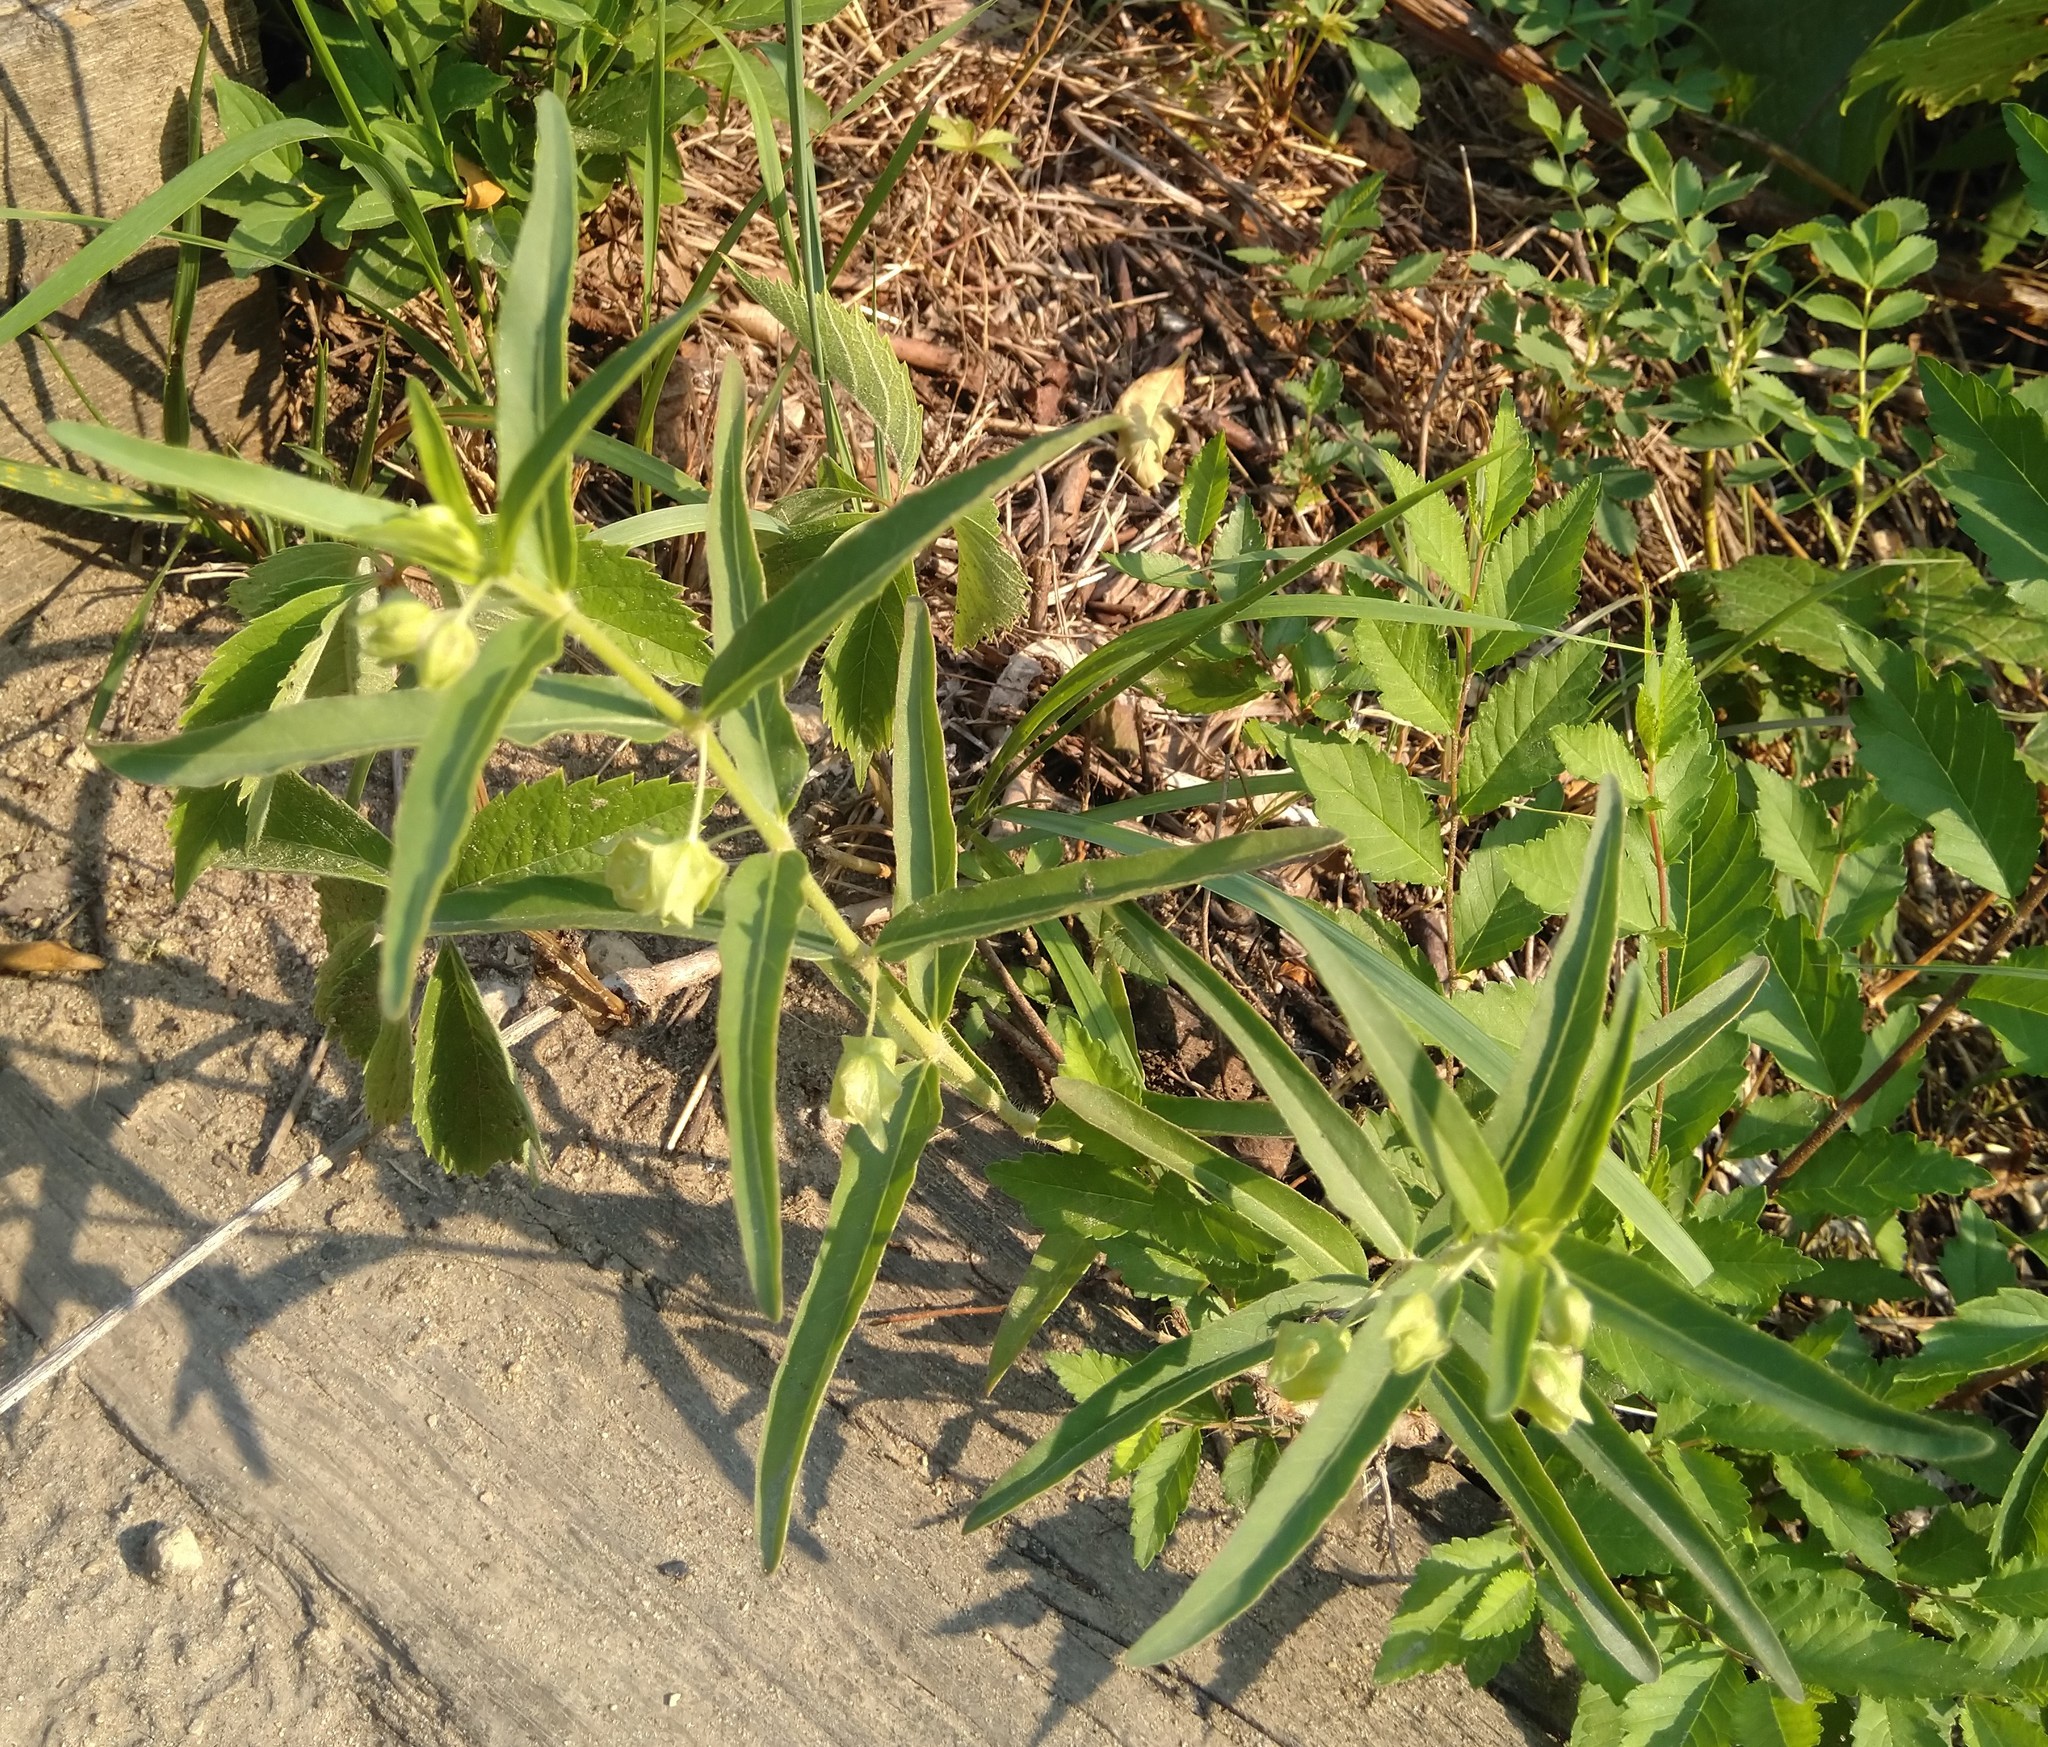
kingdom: Plantae
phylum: Tracheophyta
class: Magnoliopsida
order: Caryophyllales
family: Nyctaginaceae
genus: Mirabilis
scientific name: Mirabilis albida
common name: Hairy four-o'clock
